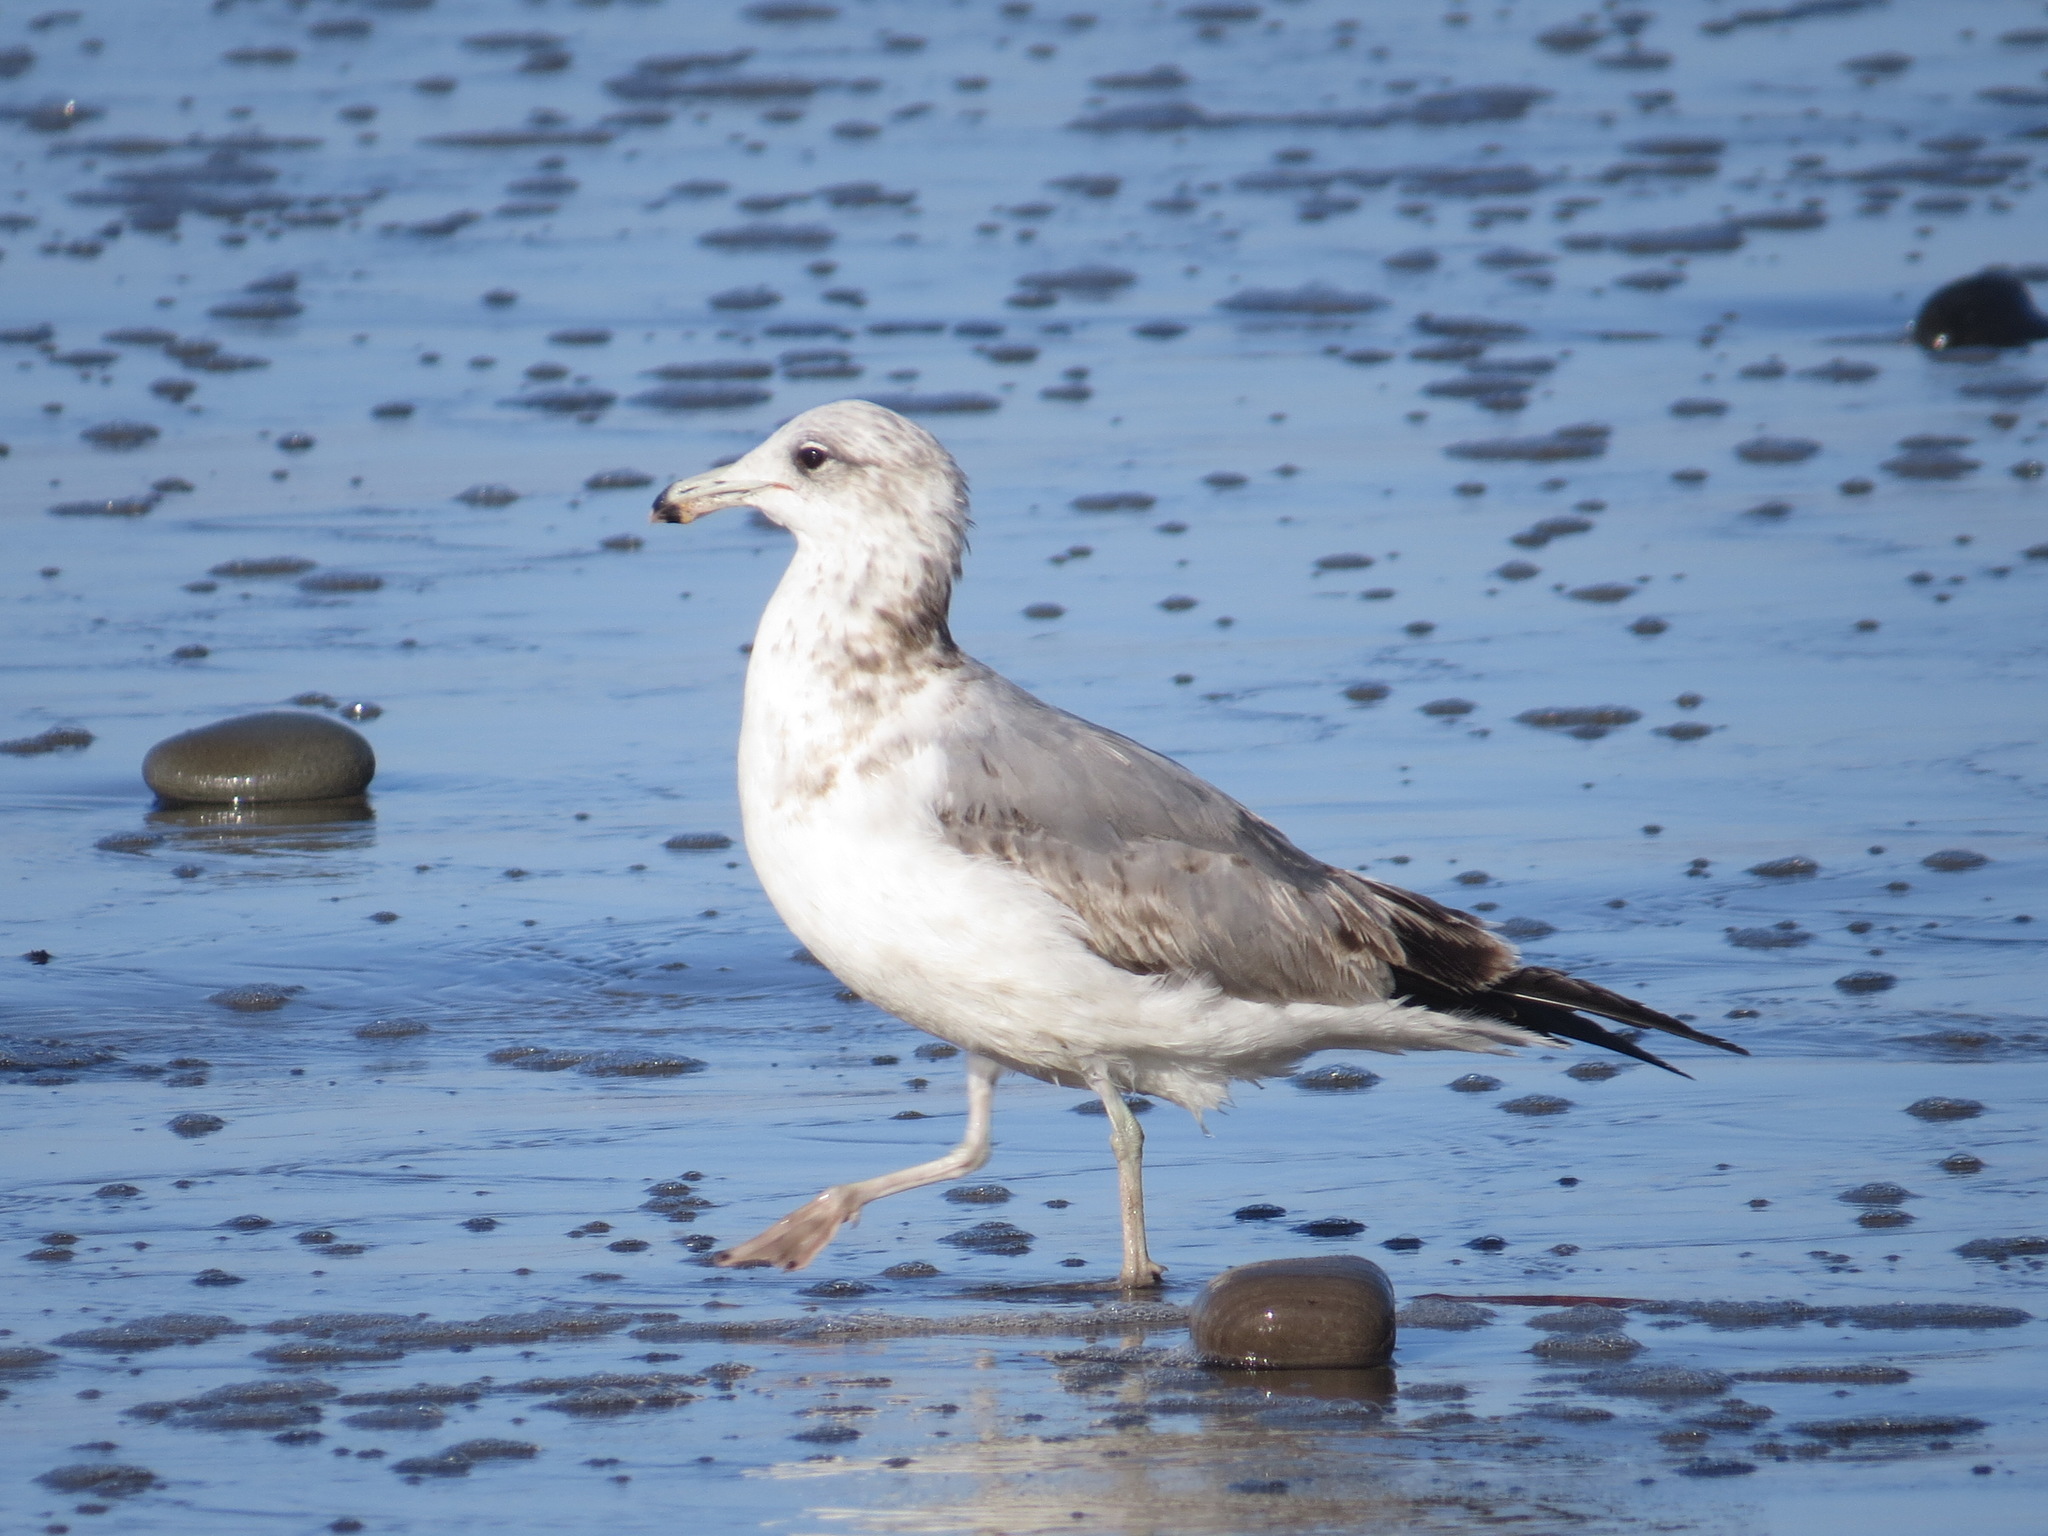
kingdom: Animalia
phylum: Chordata
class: Aves
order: Charadriiformes
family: Laridae
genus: Larus
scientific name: Larus californicus
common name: California gull
